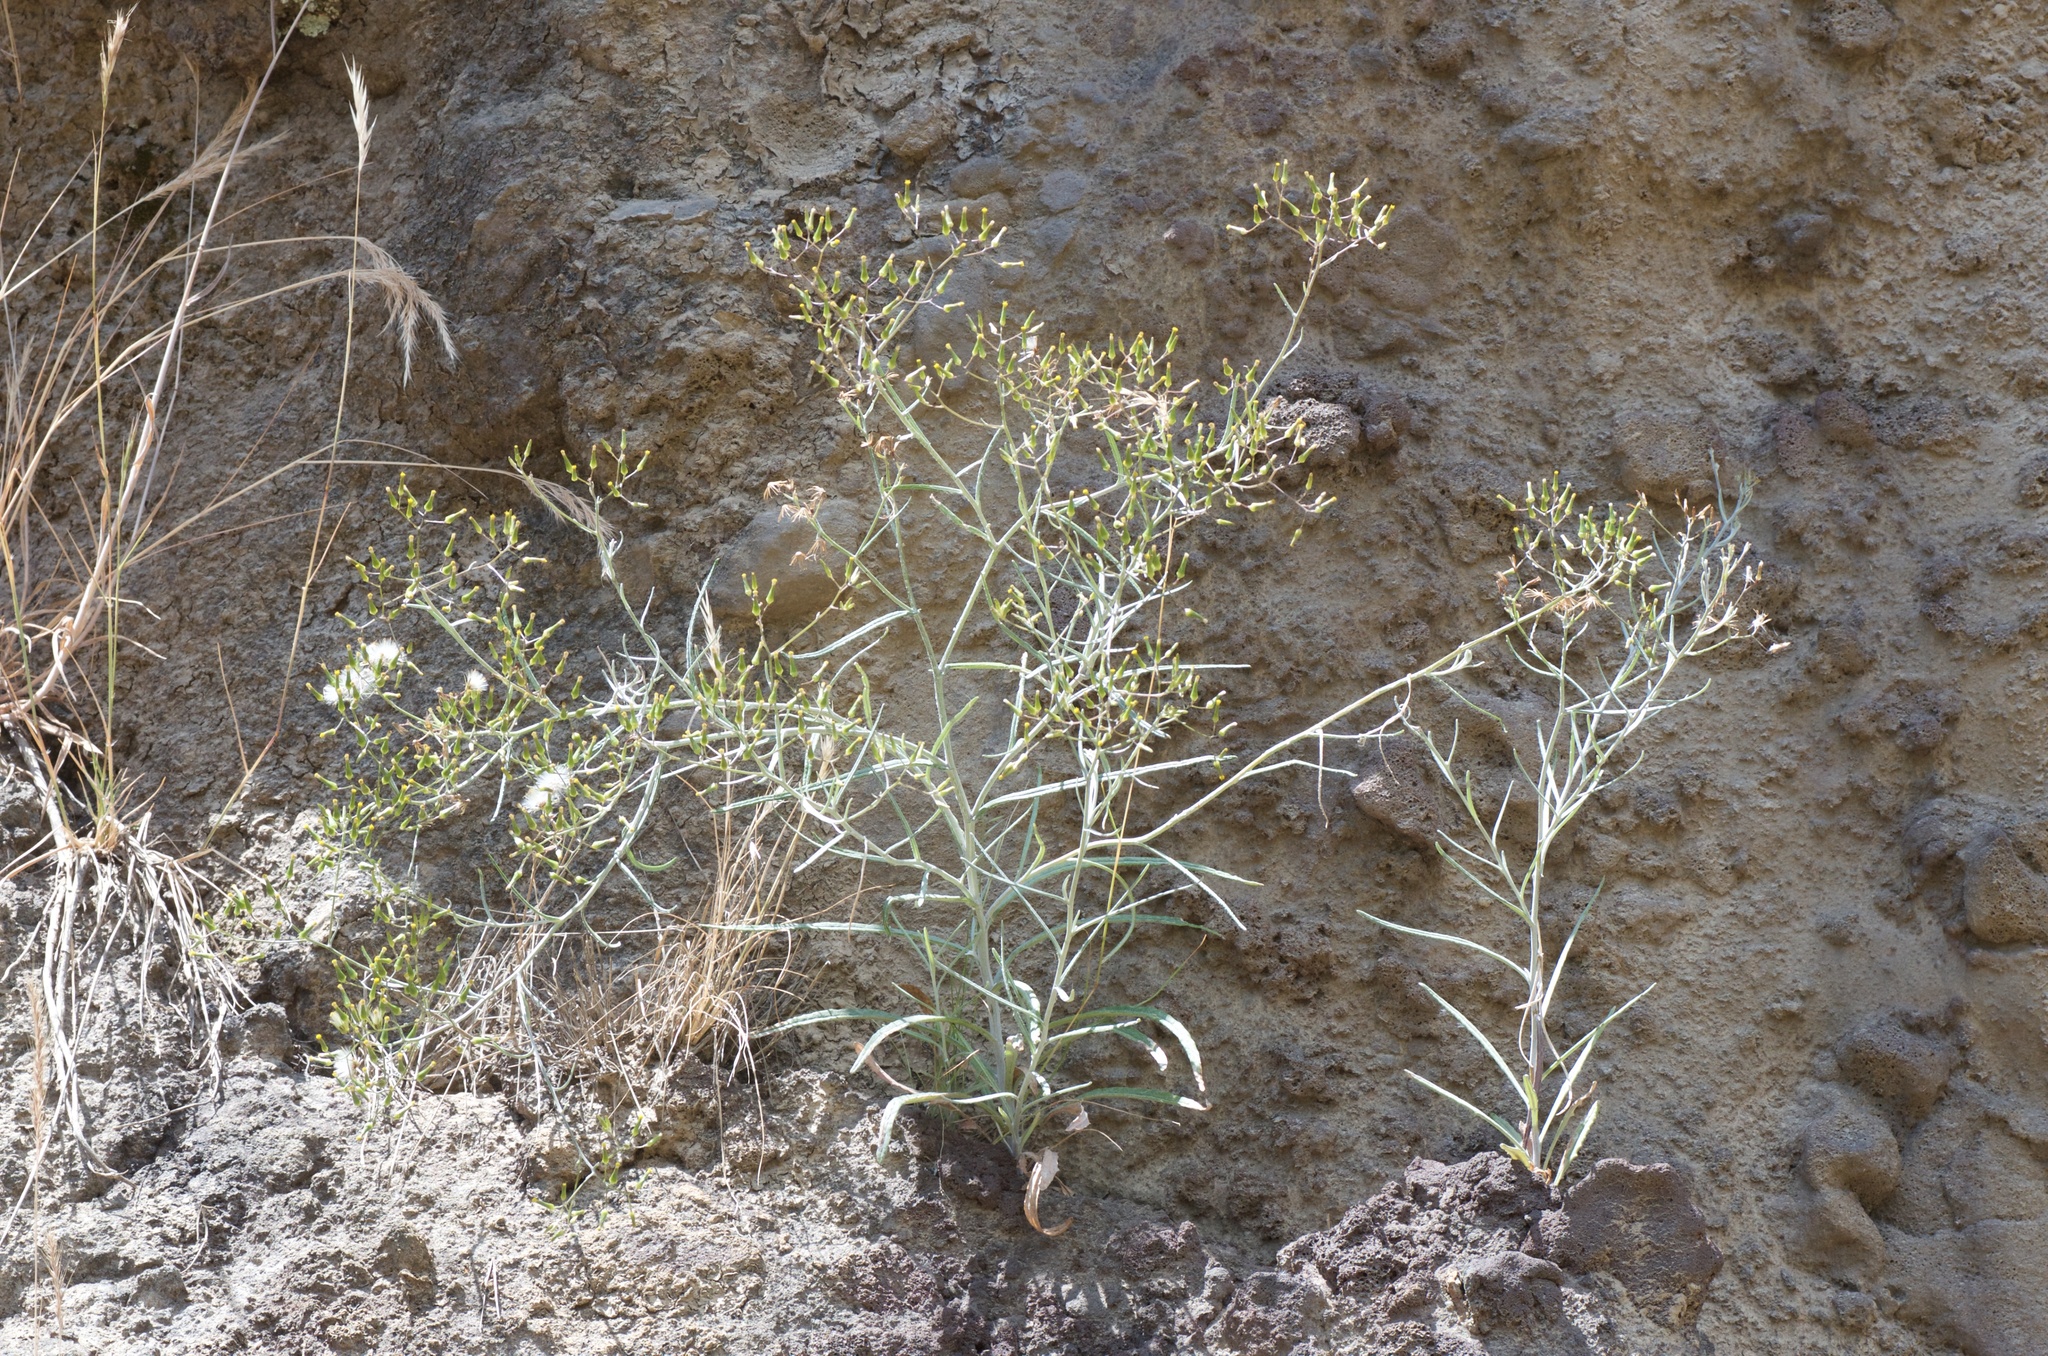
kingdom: Plantae
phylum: Tracheophyta
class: Magnoliopsida
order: Asterales
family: Asteraceae
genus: Senecio
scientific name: Senecio quadridentatus
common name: Cotton fireweed
